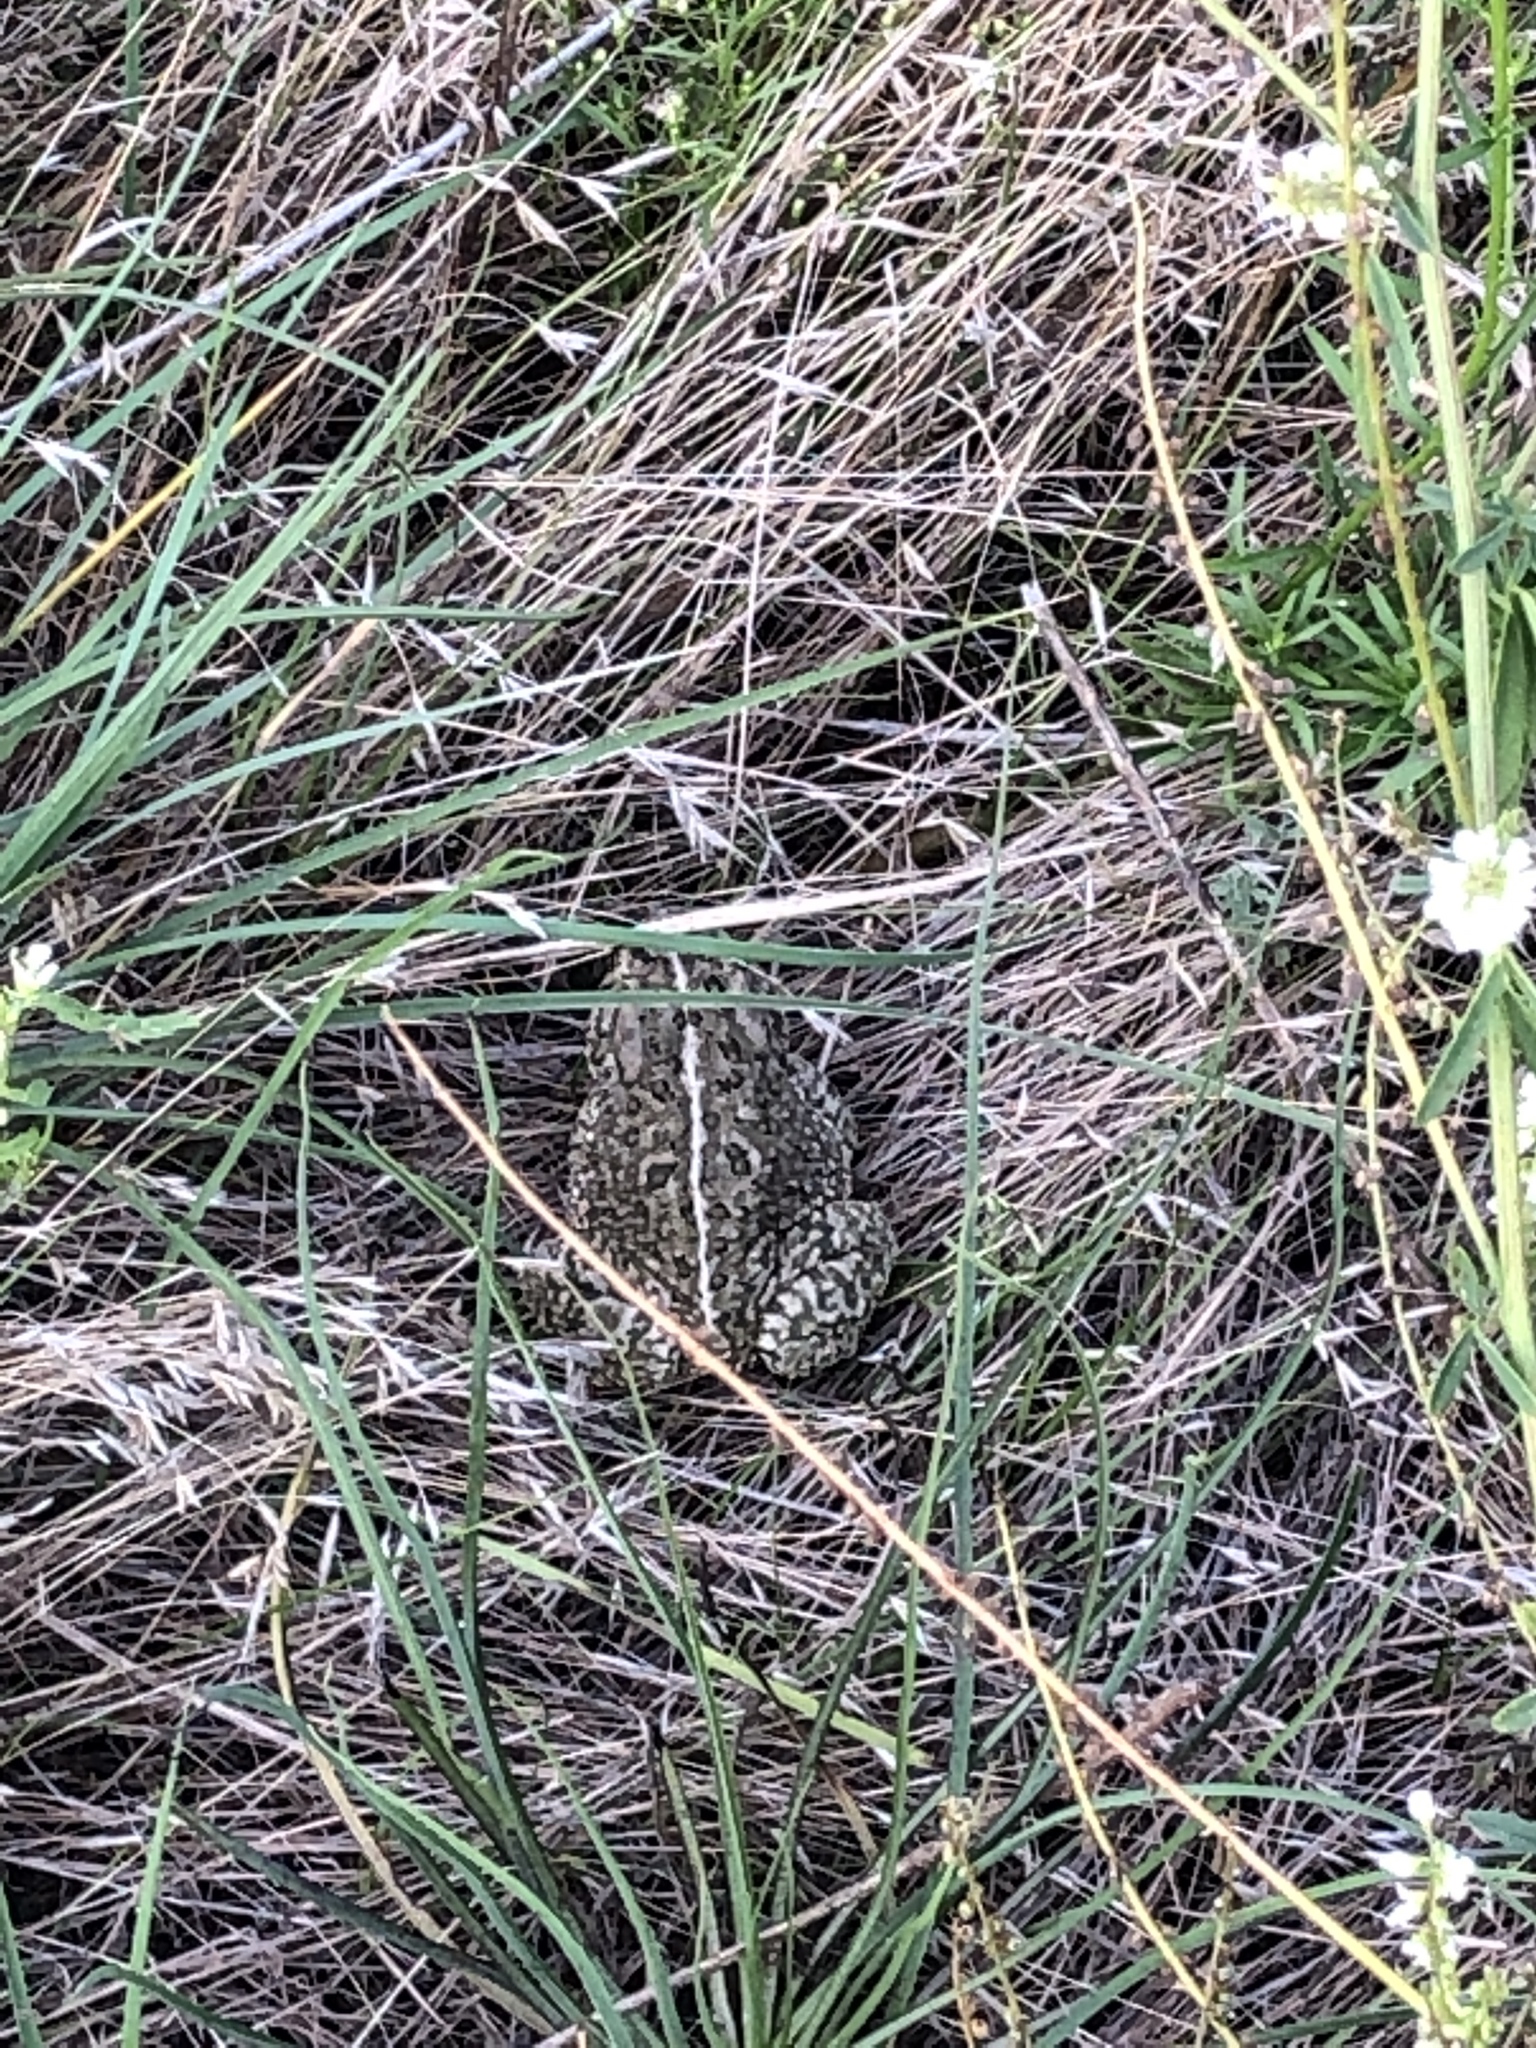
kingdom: Animalia
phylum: Chordata
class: Amphibia
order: Anura
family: Bufonidae
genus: Anaxyrus
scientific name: Anaxyrus woodhousii
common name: Woodhouse's toad
